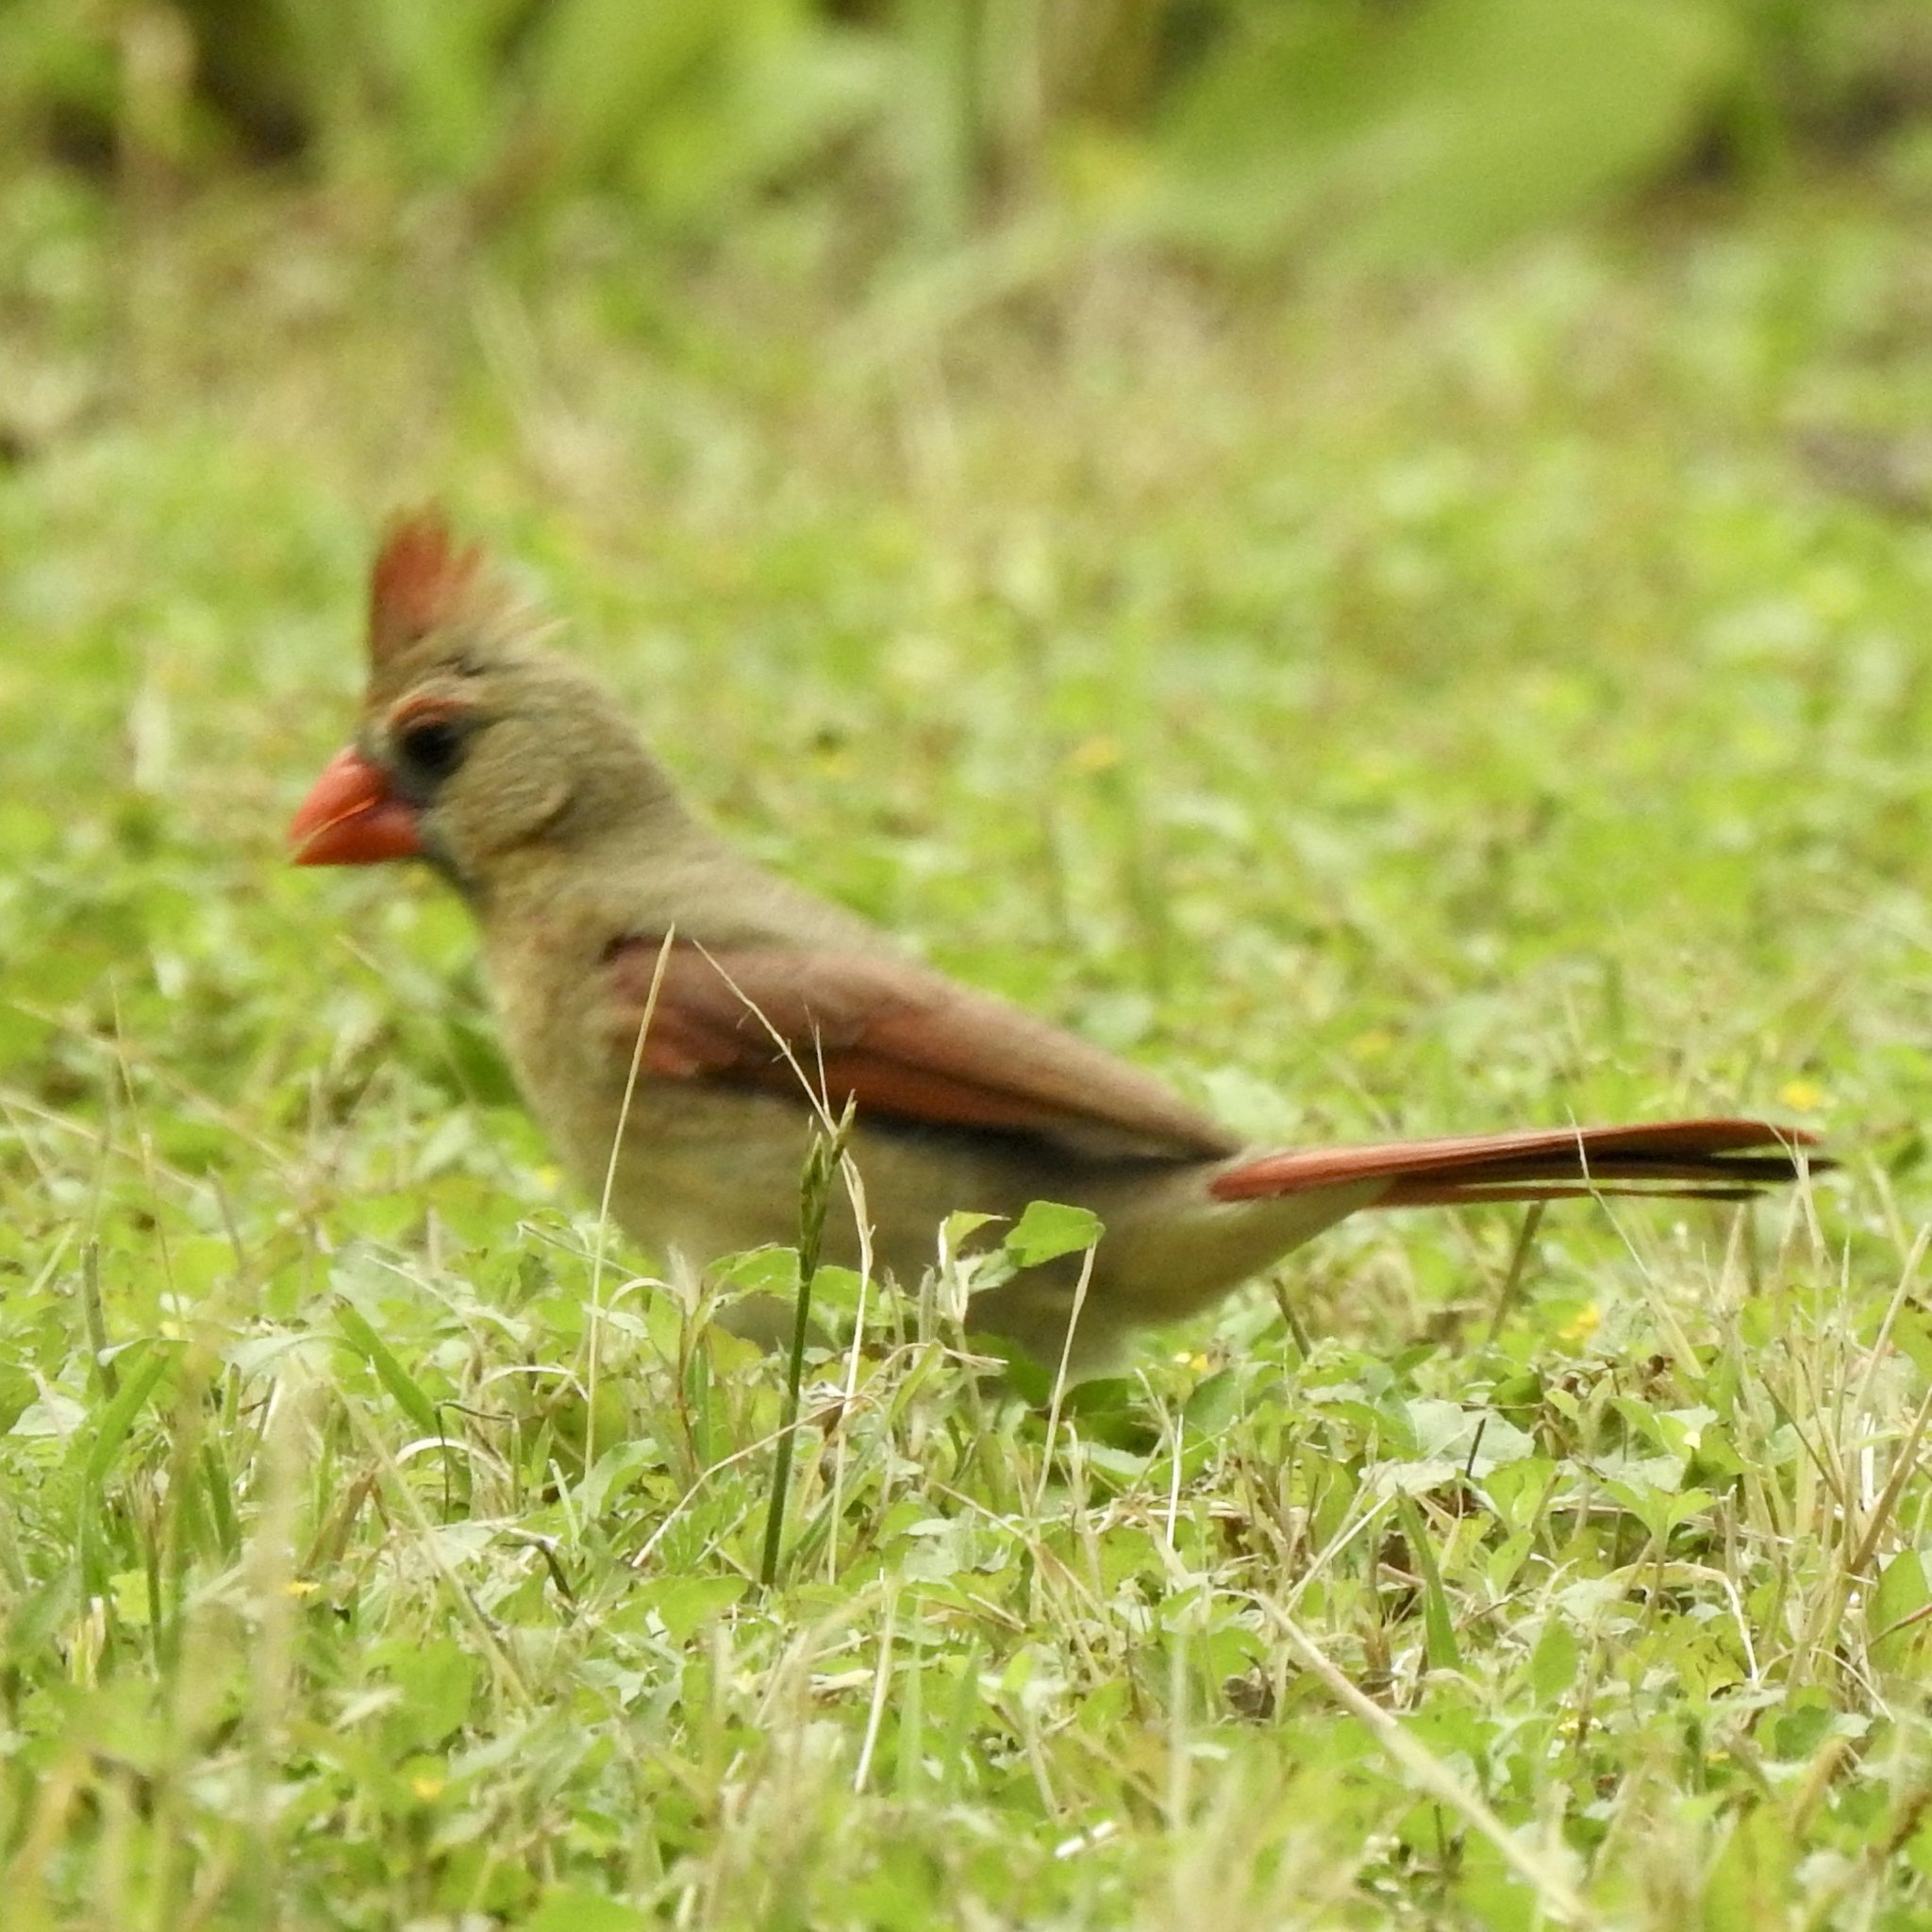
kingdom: Animalia
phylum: Chordata
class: Aves
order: Passeriformes
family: Cardinalidae
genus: Cardinalis
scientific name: Cardinalis cardinalis
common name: Northern cardinal
